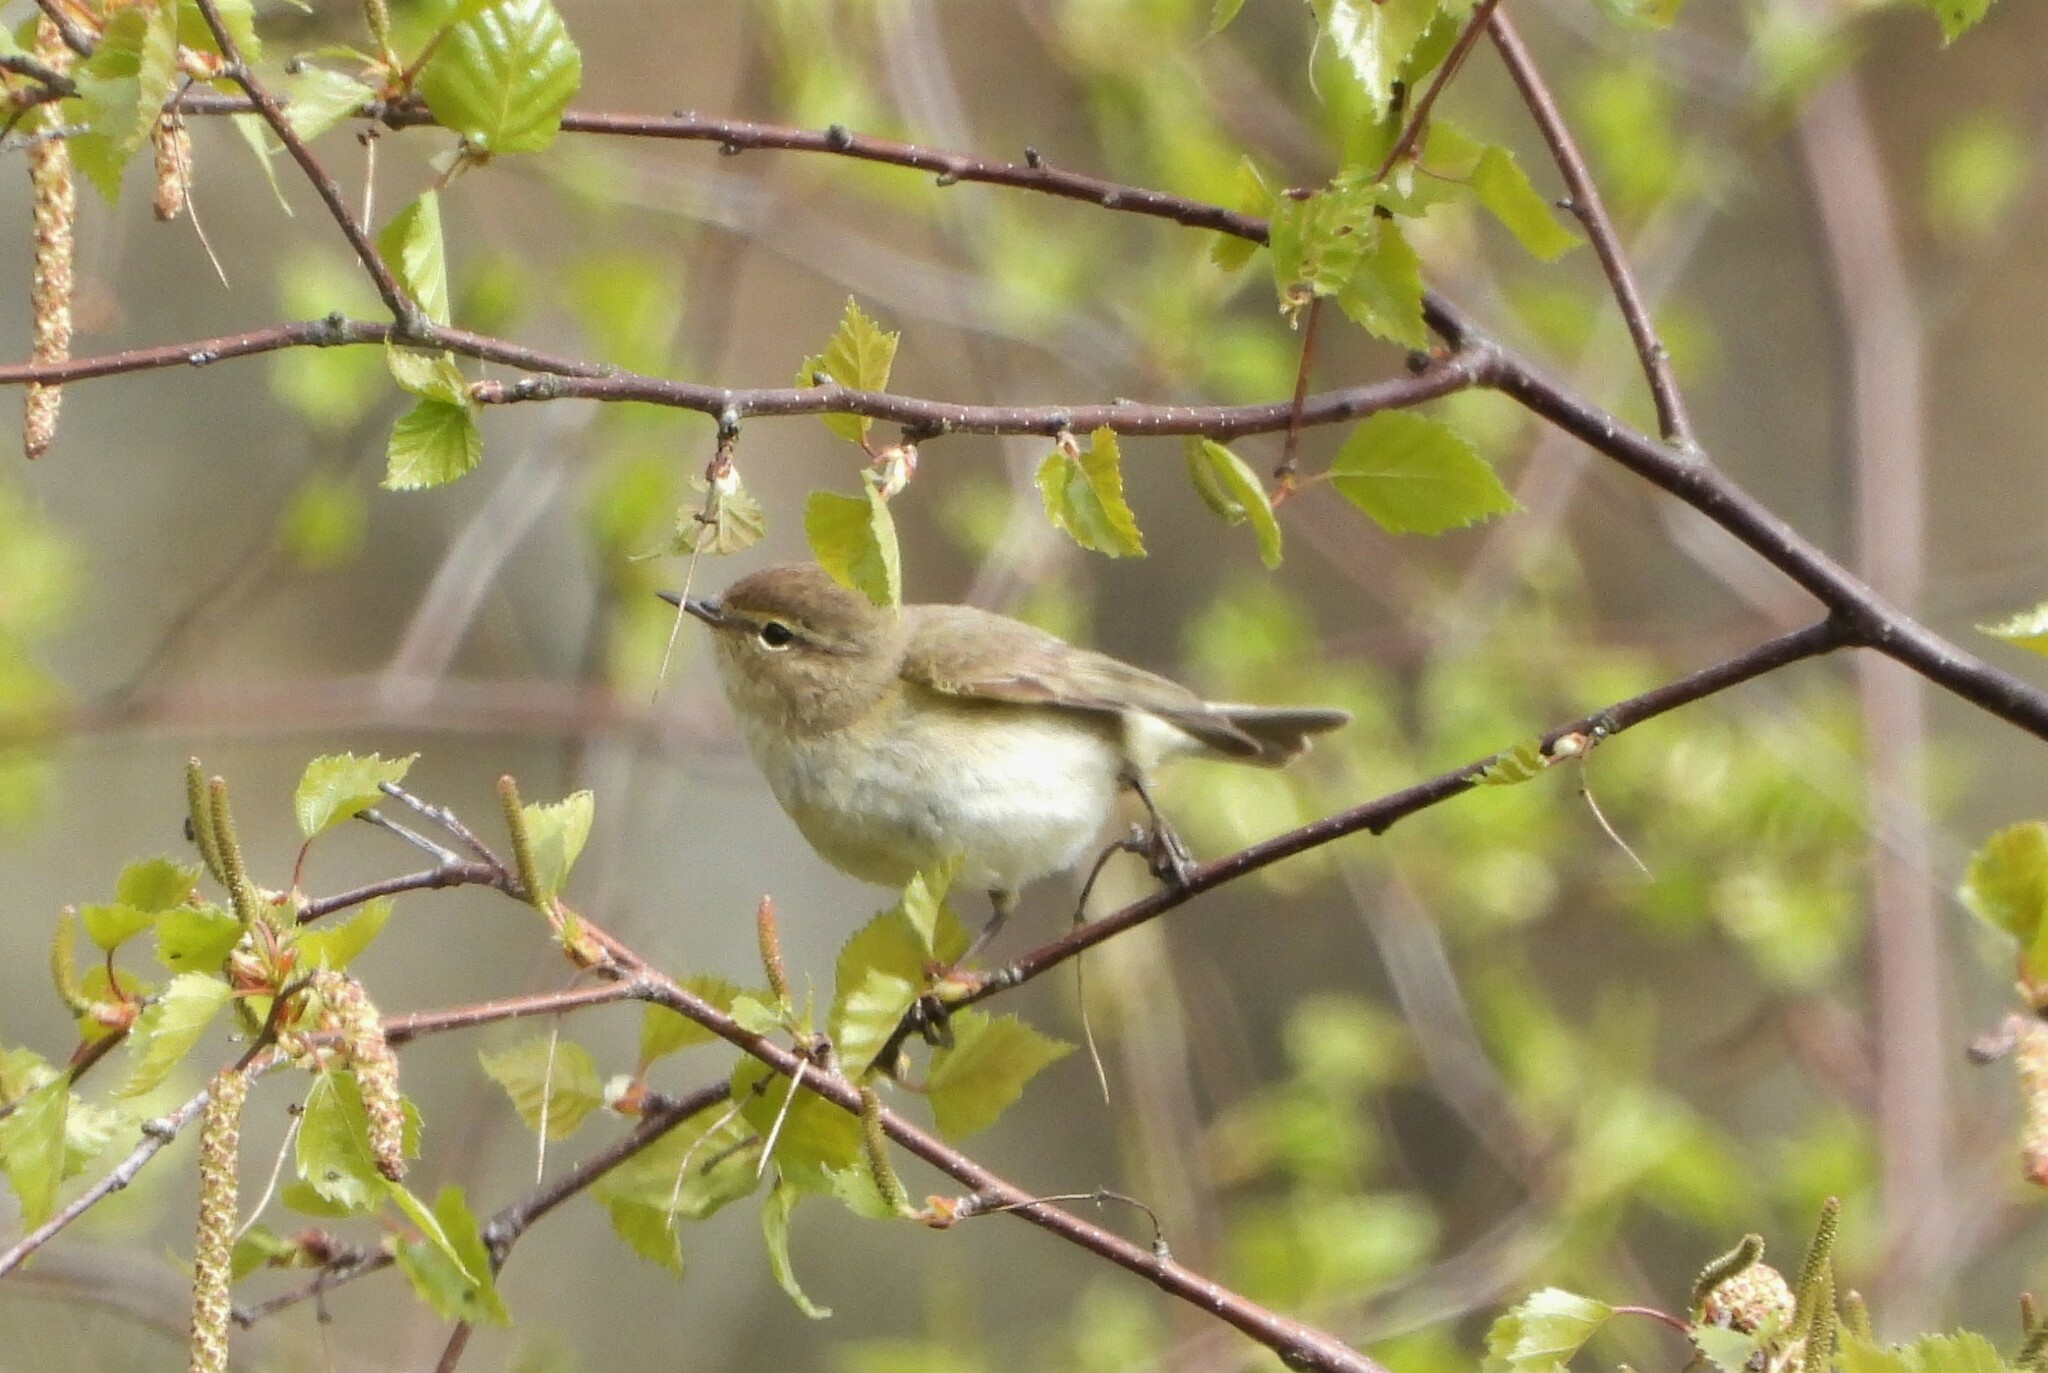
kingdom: Animalia
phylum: Chordata
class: Aves
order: Passeriformes
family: Phylloscopidae
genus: Phylloscopus
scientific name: Phylloscopus collybita
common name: Common chiffchaff
